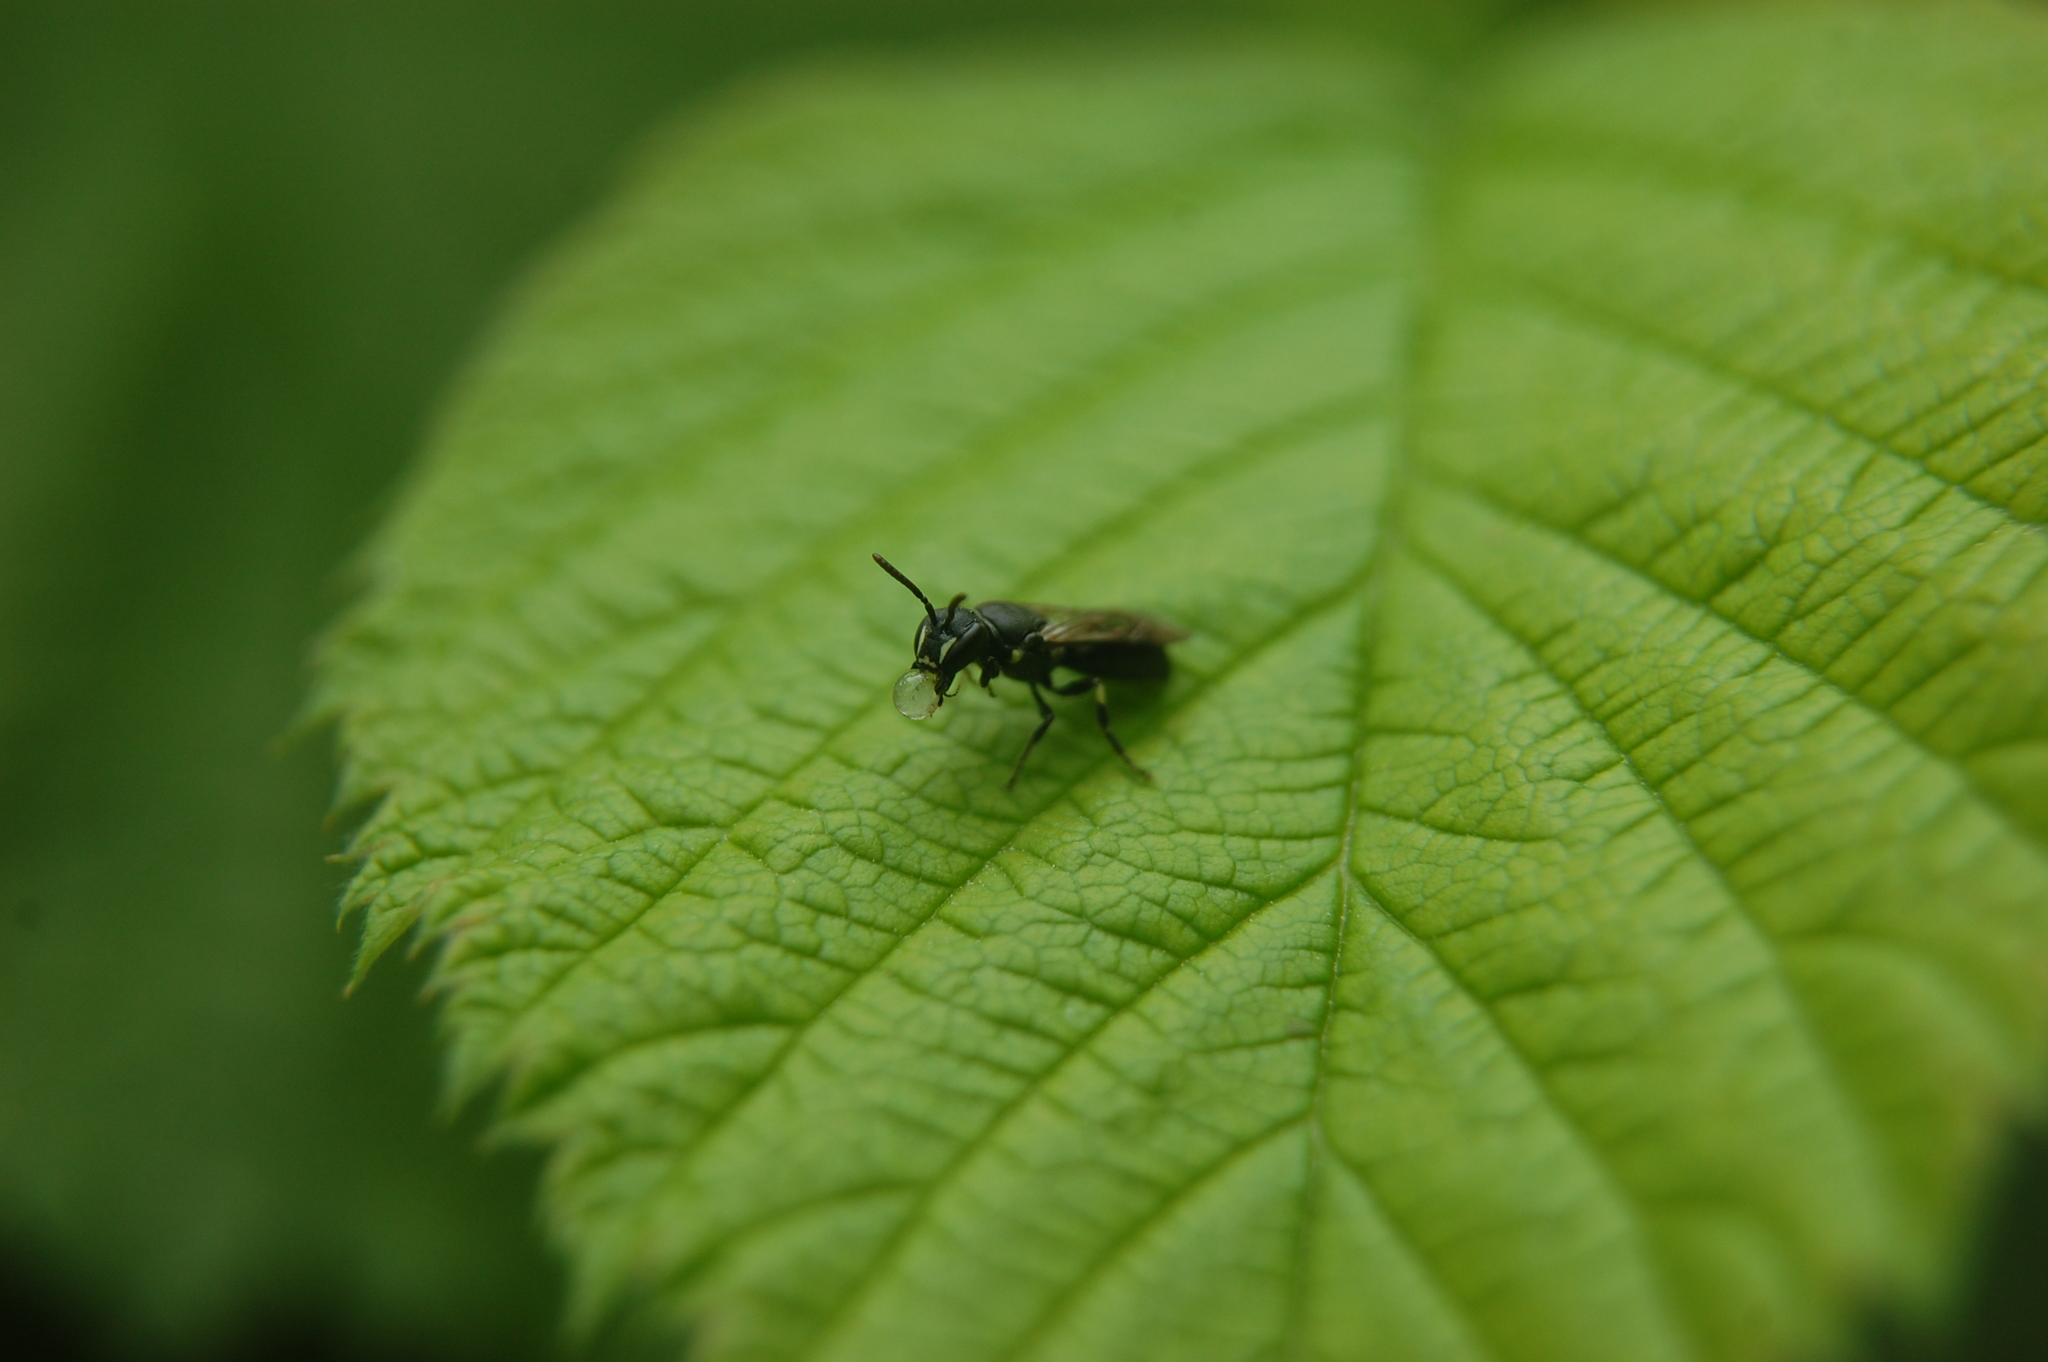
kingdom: Animalia
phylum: Arthropoda
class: Insecta
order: Hymenoptera
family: Colletidae
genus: Hylaeus
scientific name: Hylaeus annulatus
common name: Annulate masked bee
